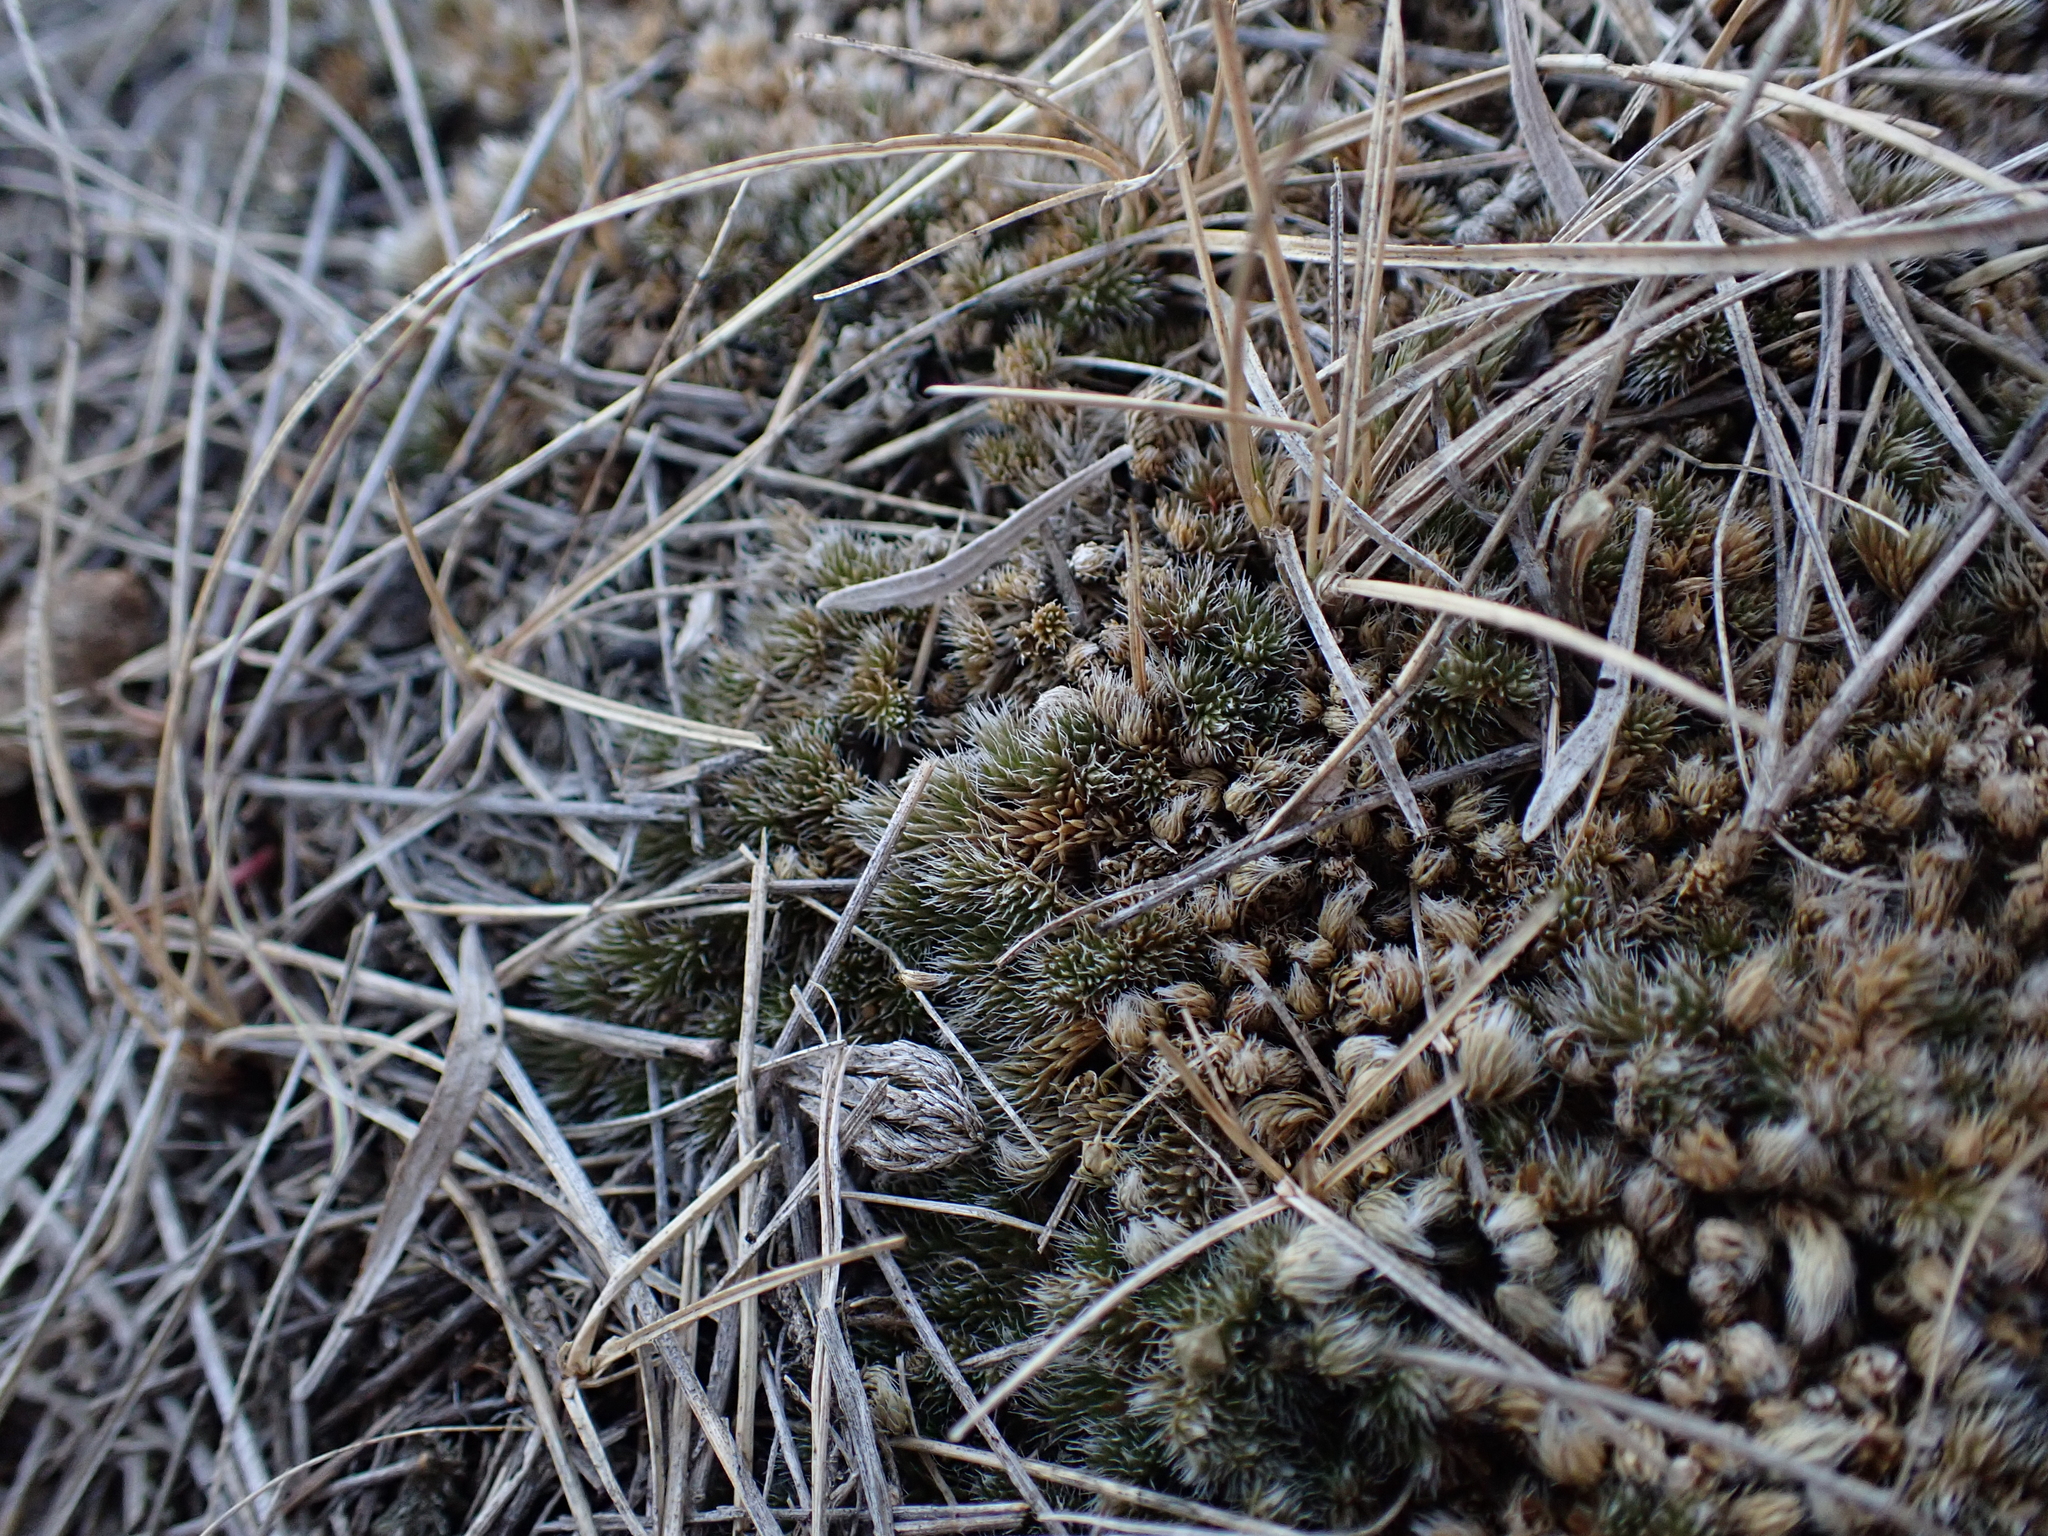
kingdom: Plantae
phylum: Tracheophyta
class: Lycopodiopsida
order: Selaginellales
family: Selaginellaceae
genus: Selaginella
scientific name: Selaginella densa
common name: Mountain spike-moss
